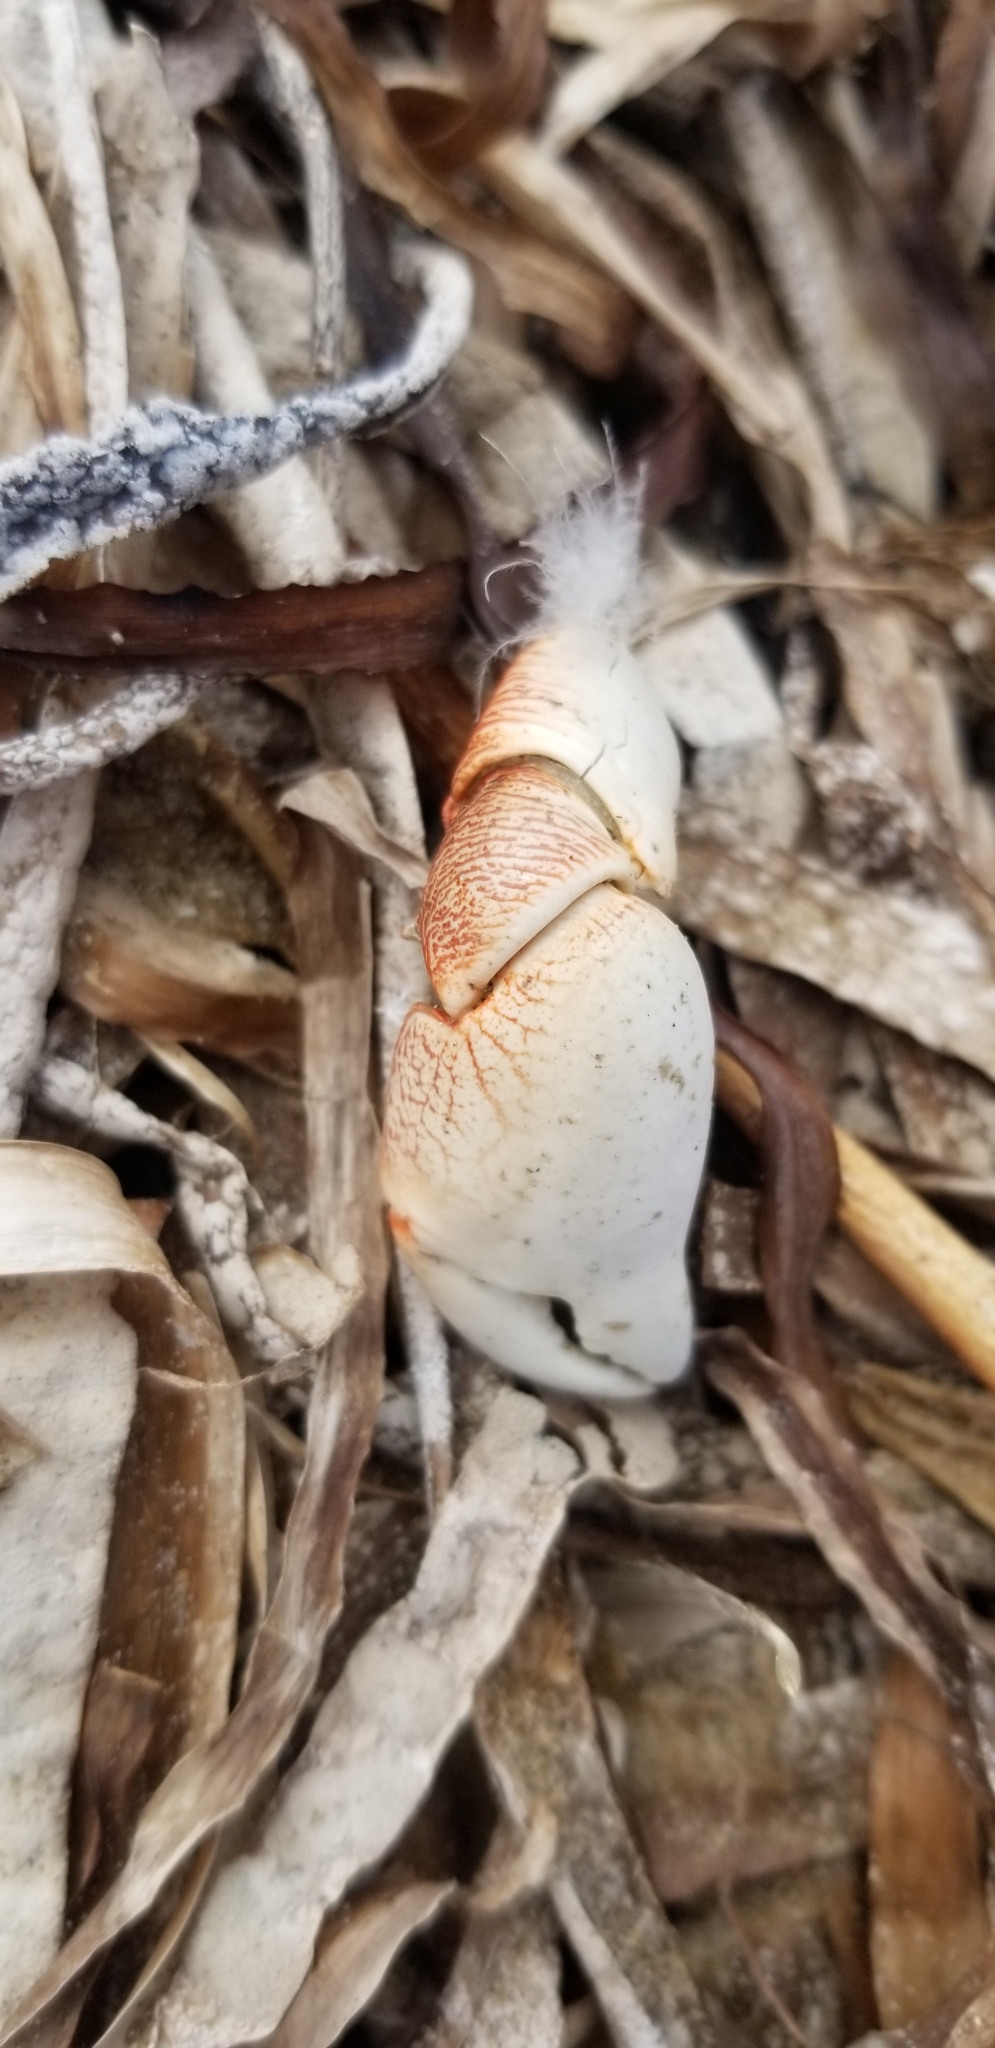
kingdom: Animalia
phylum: Arthropoda
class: Malacostraca
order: Decapoda
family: Grapsidae
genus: Pachygrapsus
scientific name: Pachygrapsus crassipes
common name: Striped shore crab
